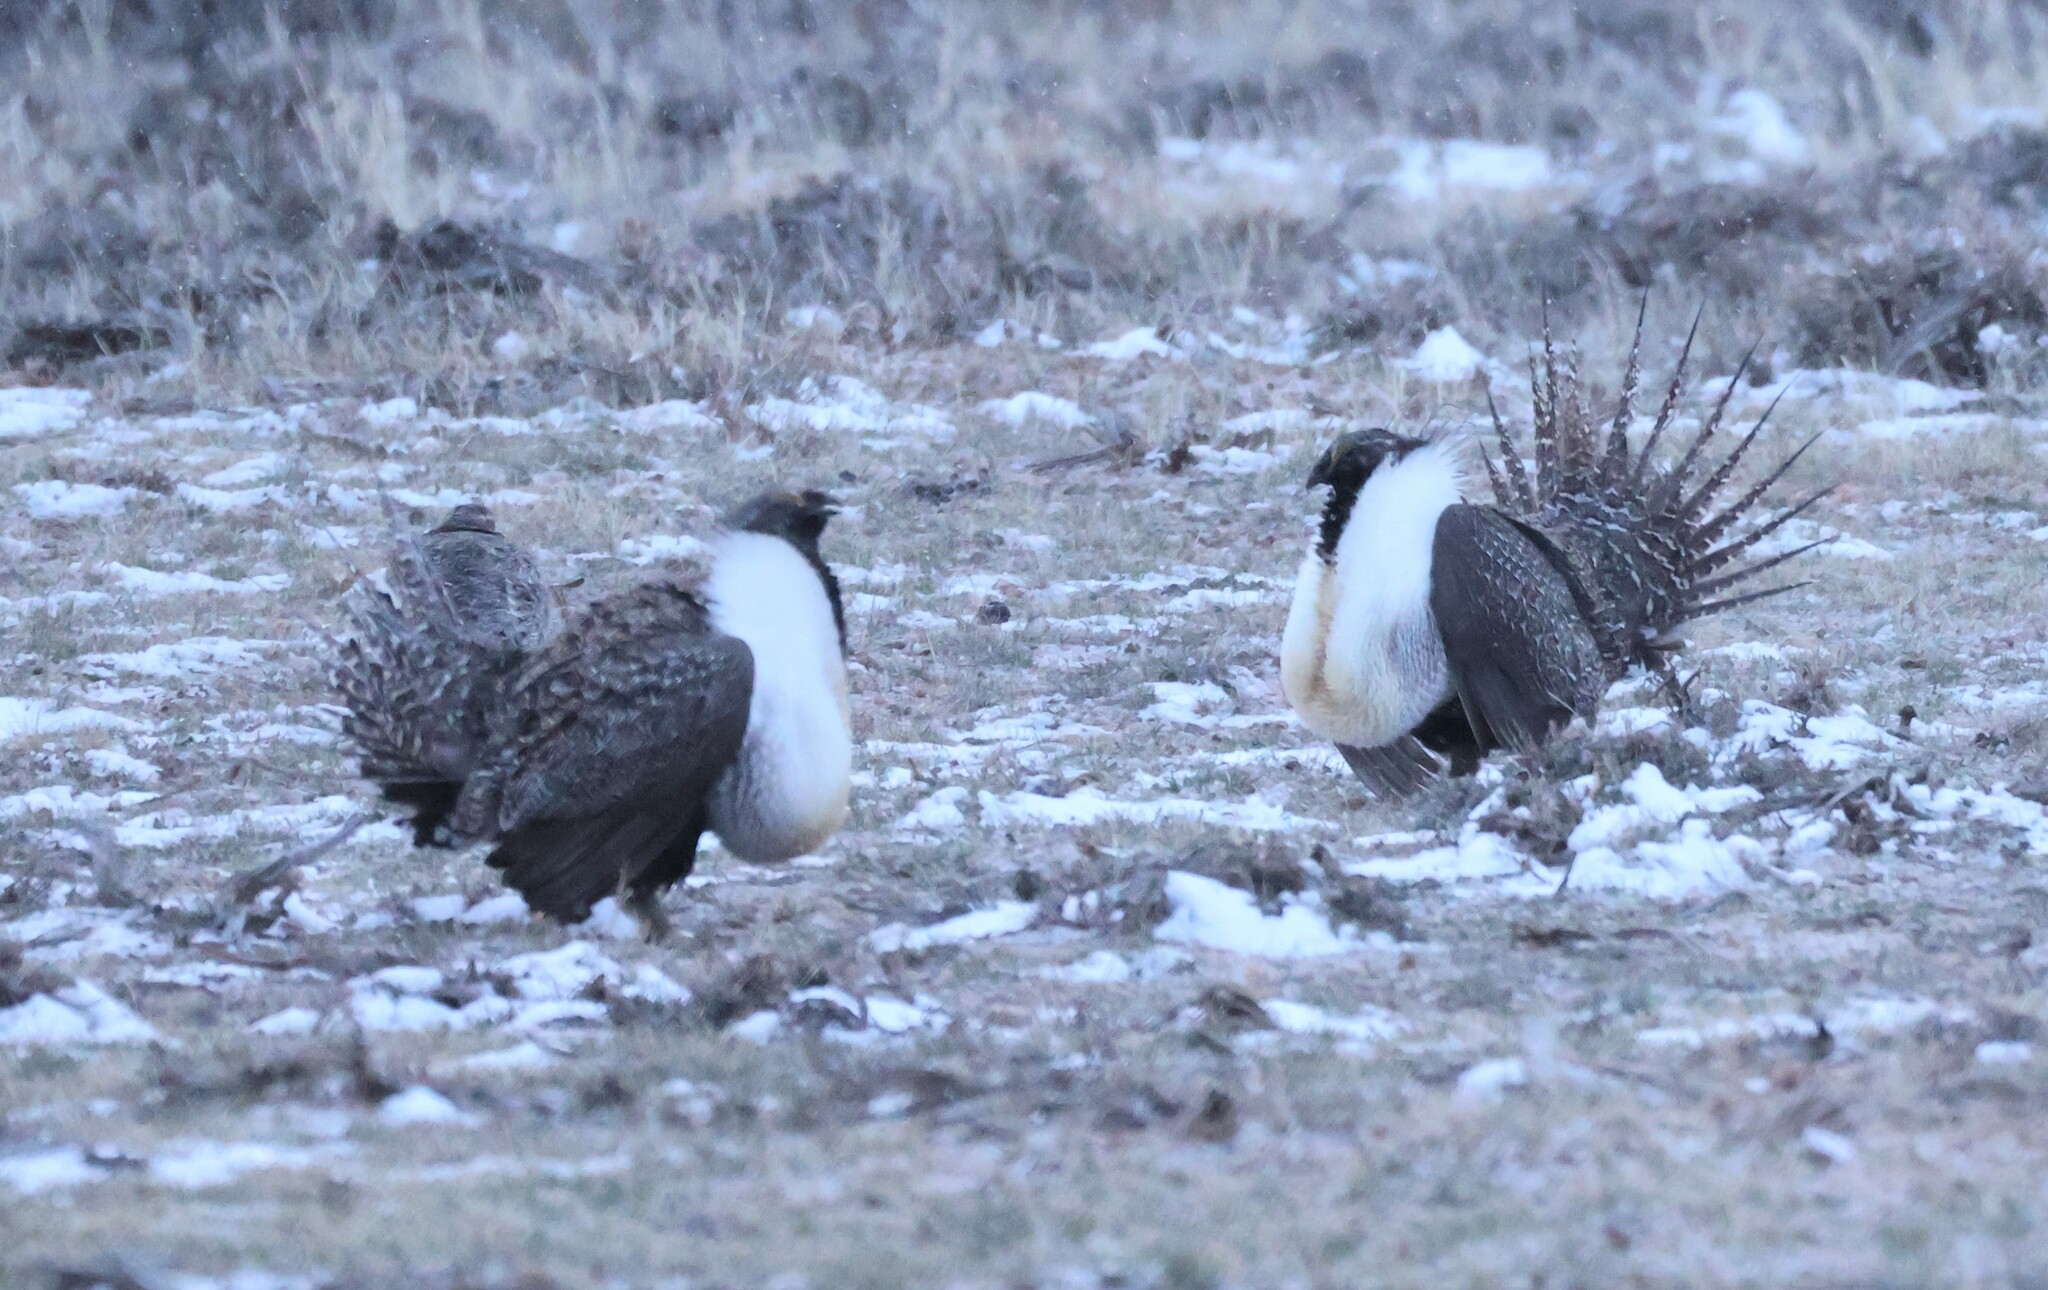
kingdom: Animalia
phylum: Chordata
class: Aves
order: Galliformes
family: Phasianidae
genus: Centrocercus
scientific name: Centrocercus urophasianus
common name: Sage grouse
